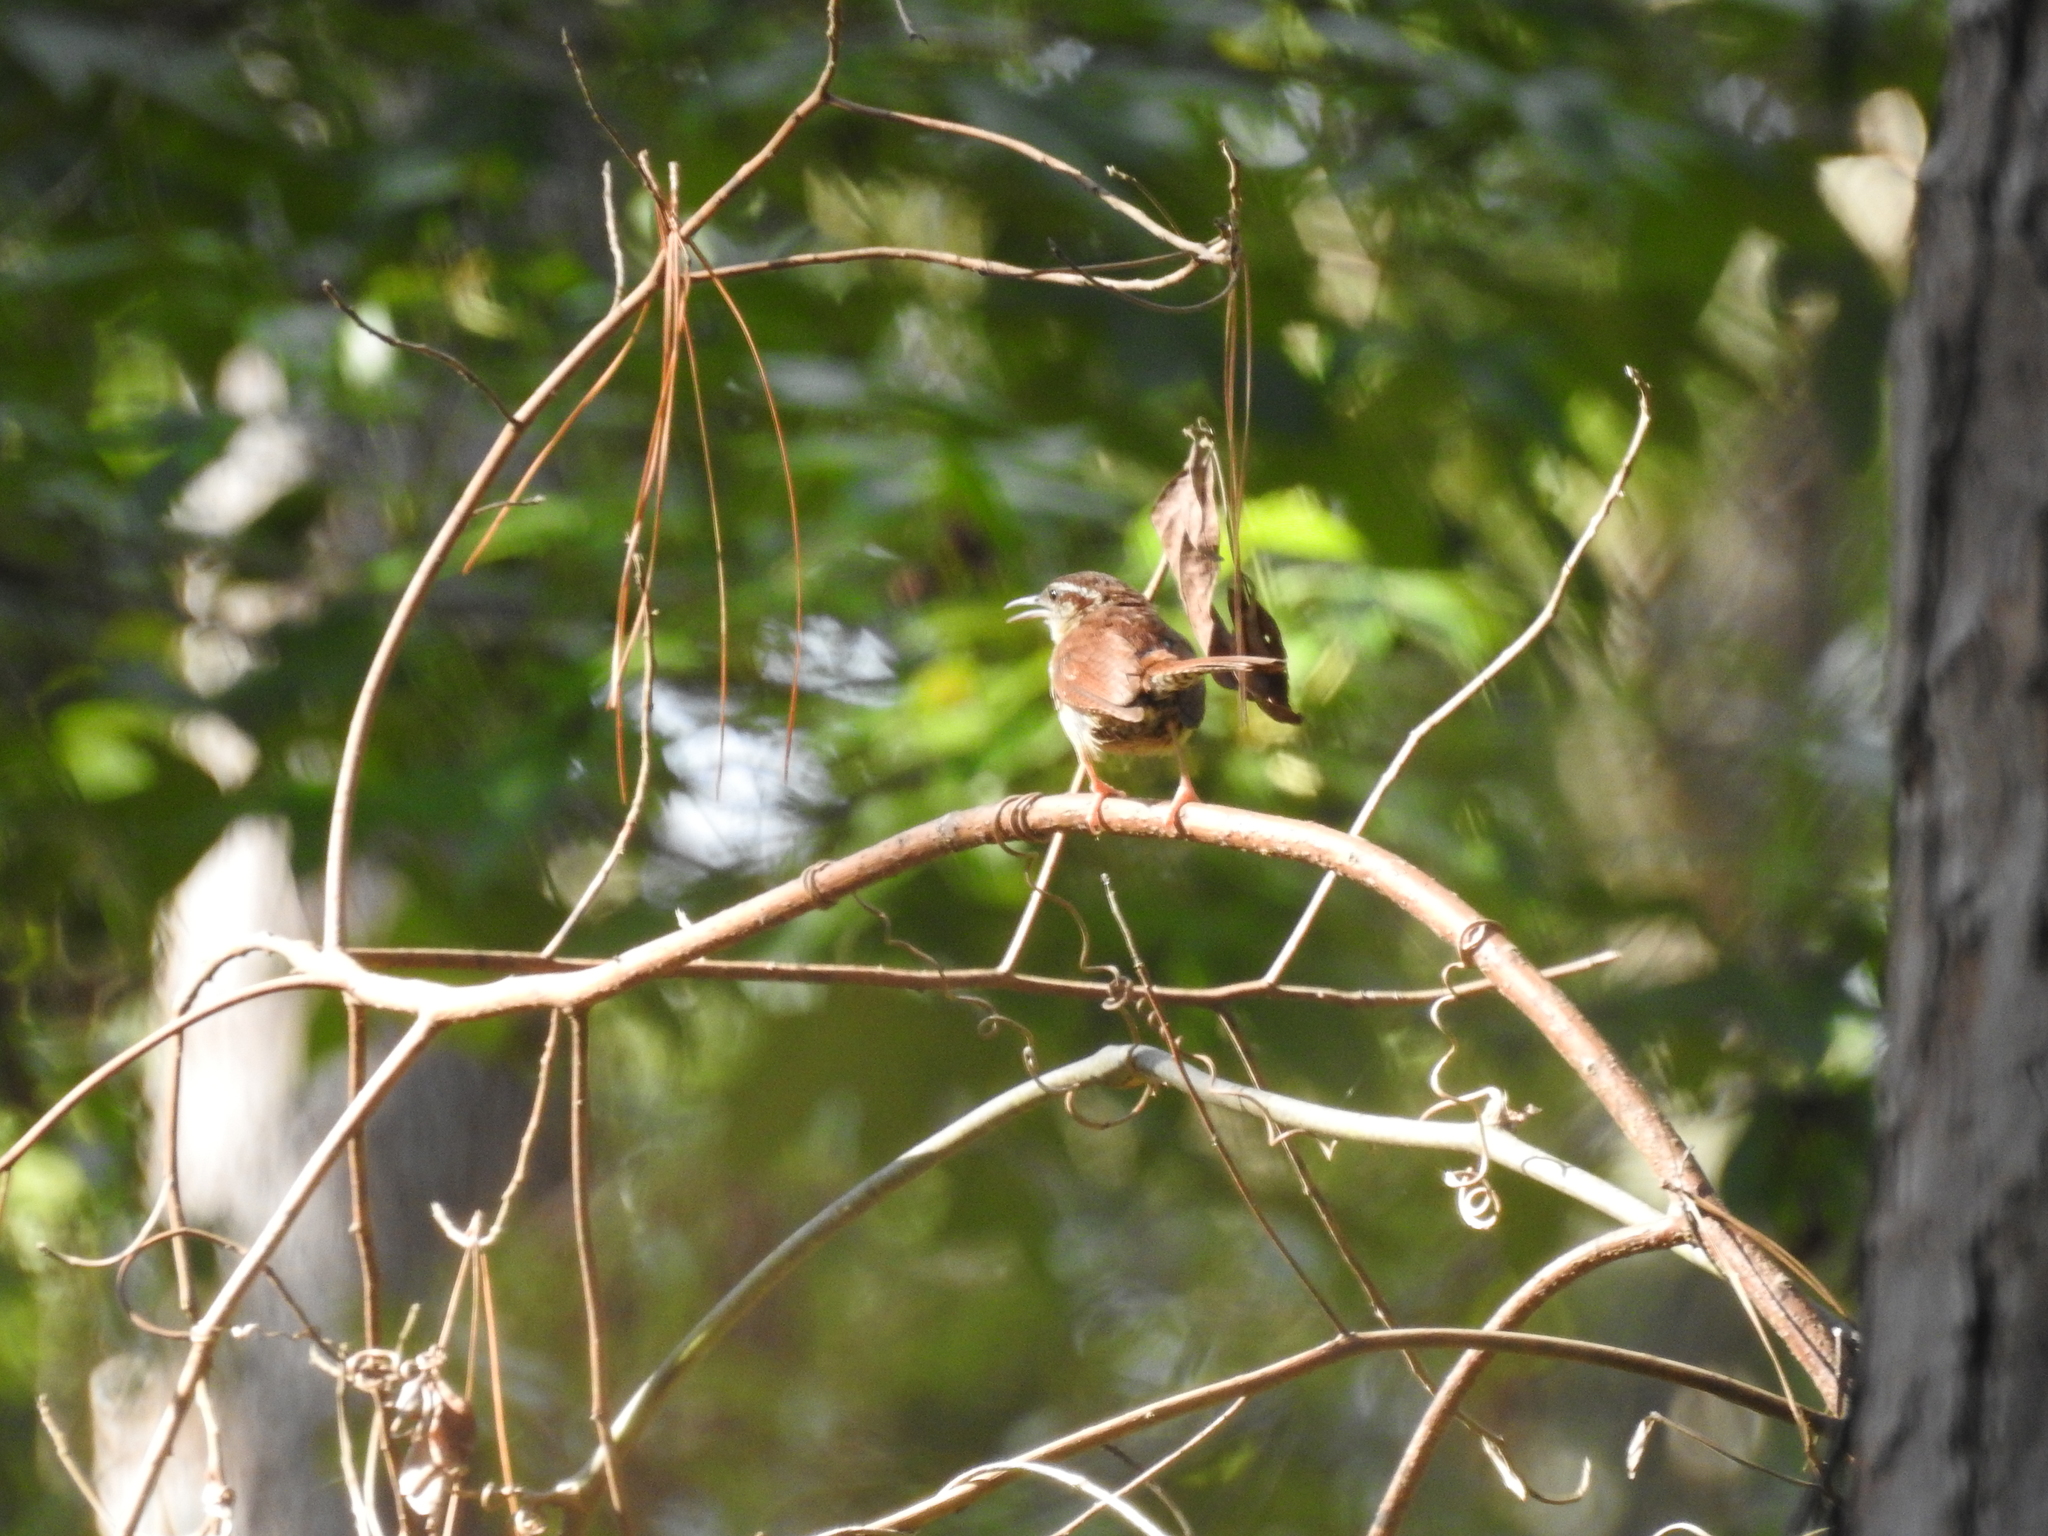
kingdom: Animalia
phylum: Chordata
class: Aves
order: Passeriformes
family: Troglodytidae
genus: Thryothorus
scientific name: Thryothorus ludovicianus
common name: Carolina wren
